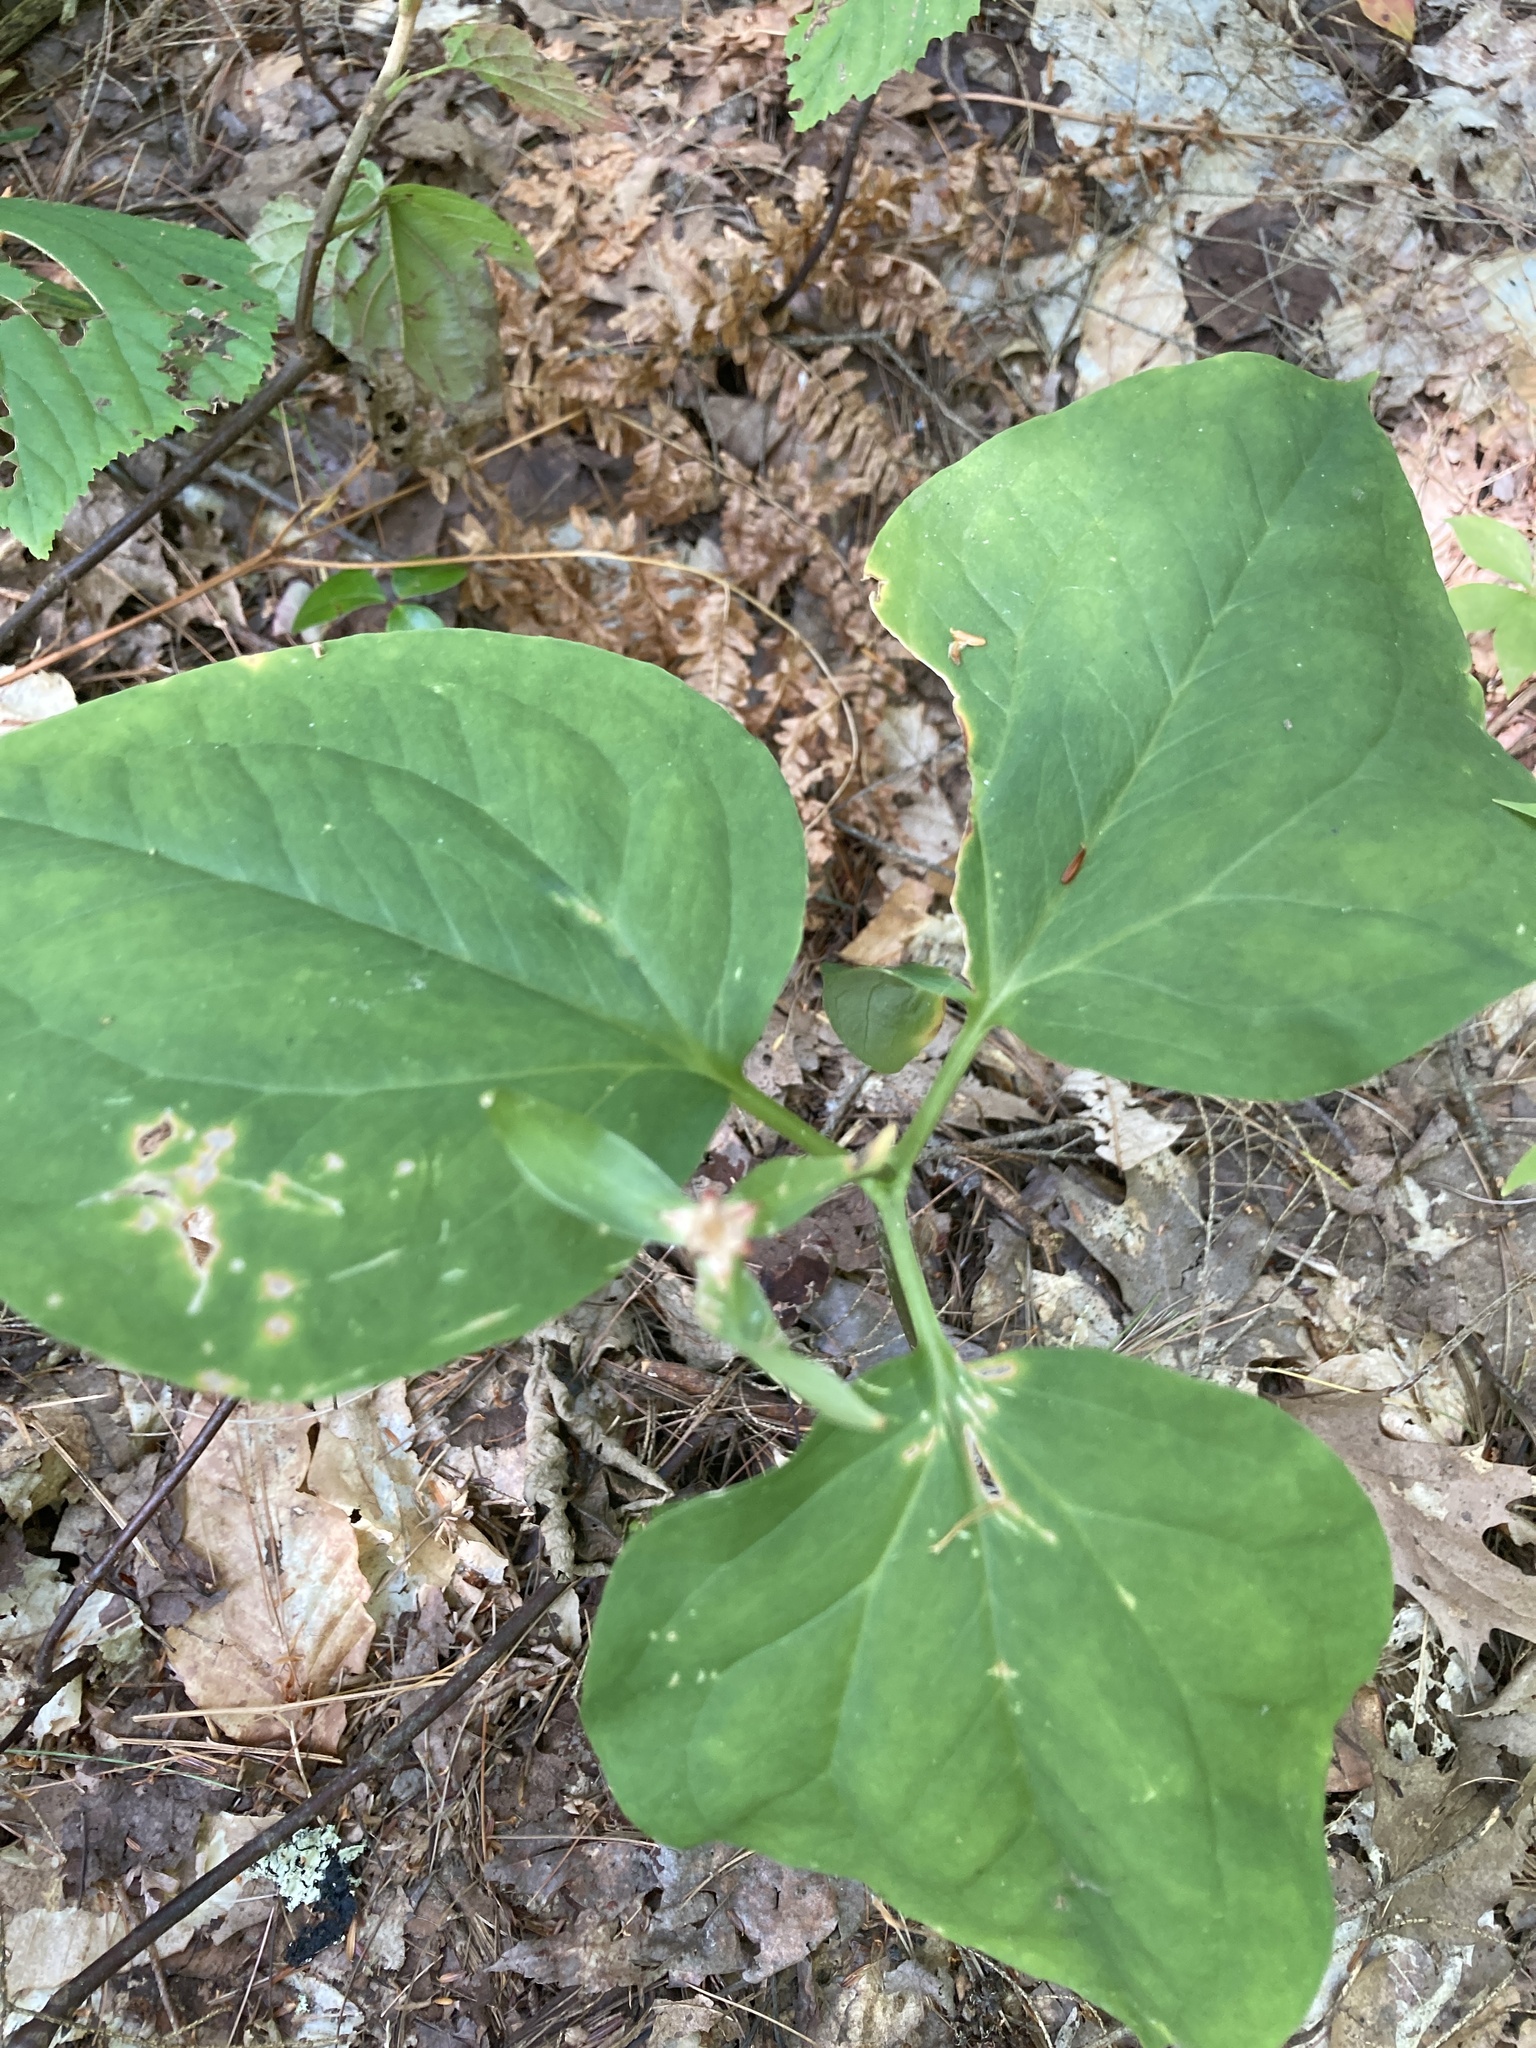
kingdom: Plantae
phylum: Tracheophyta
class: Liliopsida
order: Liliales
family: Melanthiaceae
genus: Trillium
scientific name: Trillium undulatum
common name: Paint trillium
